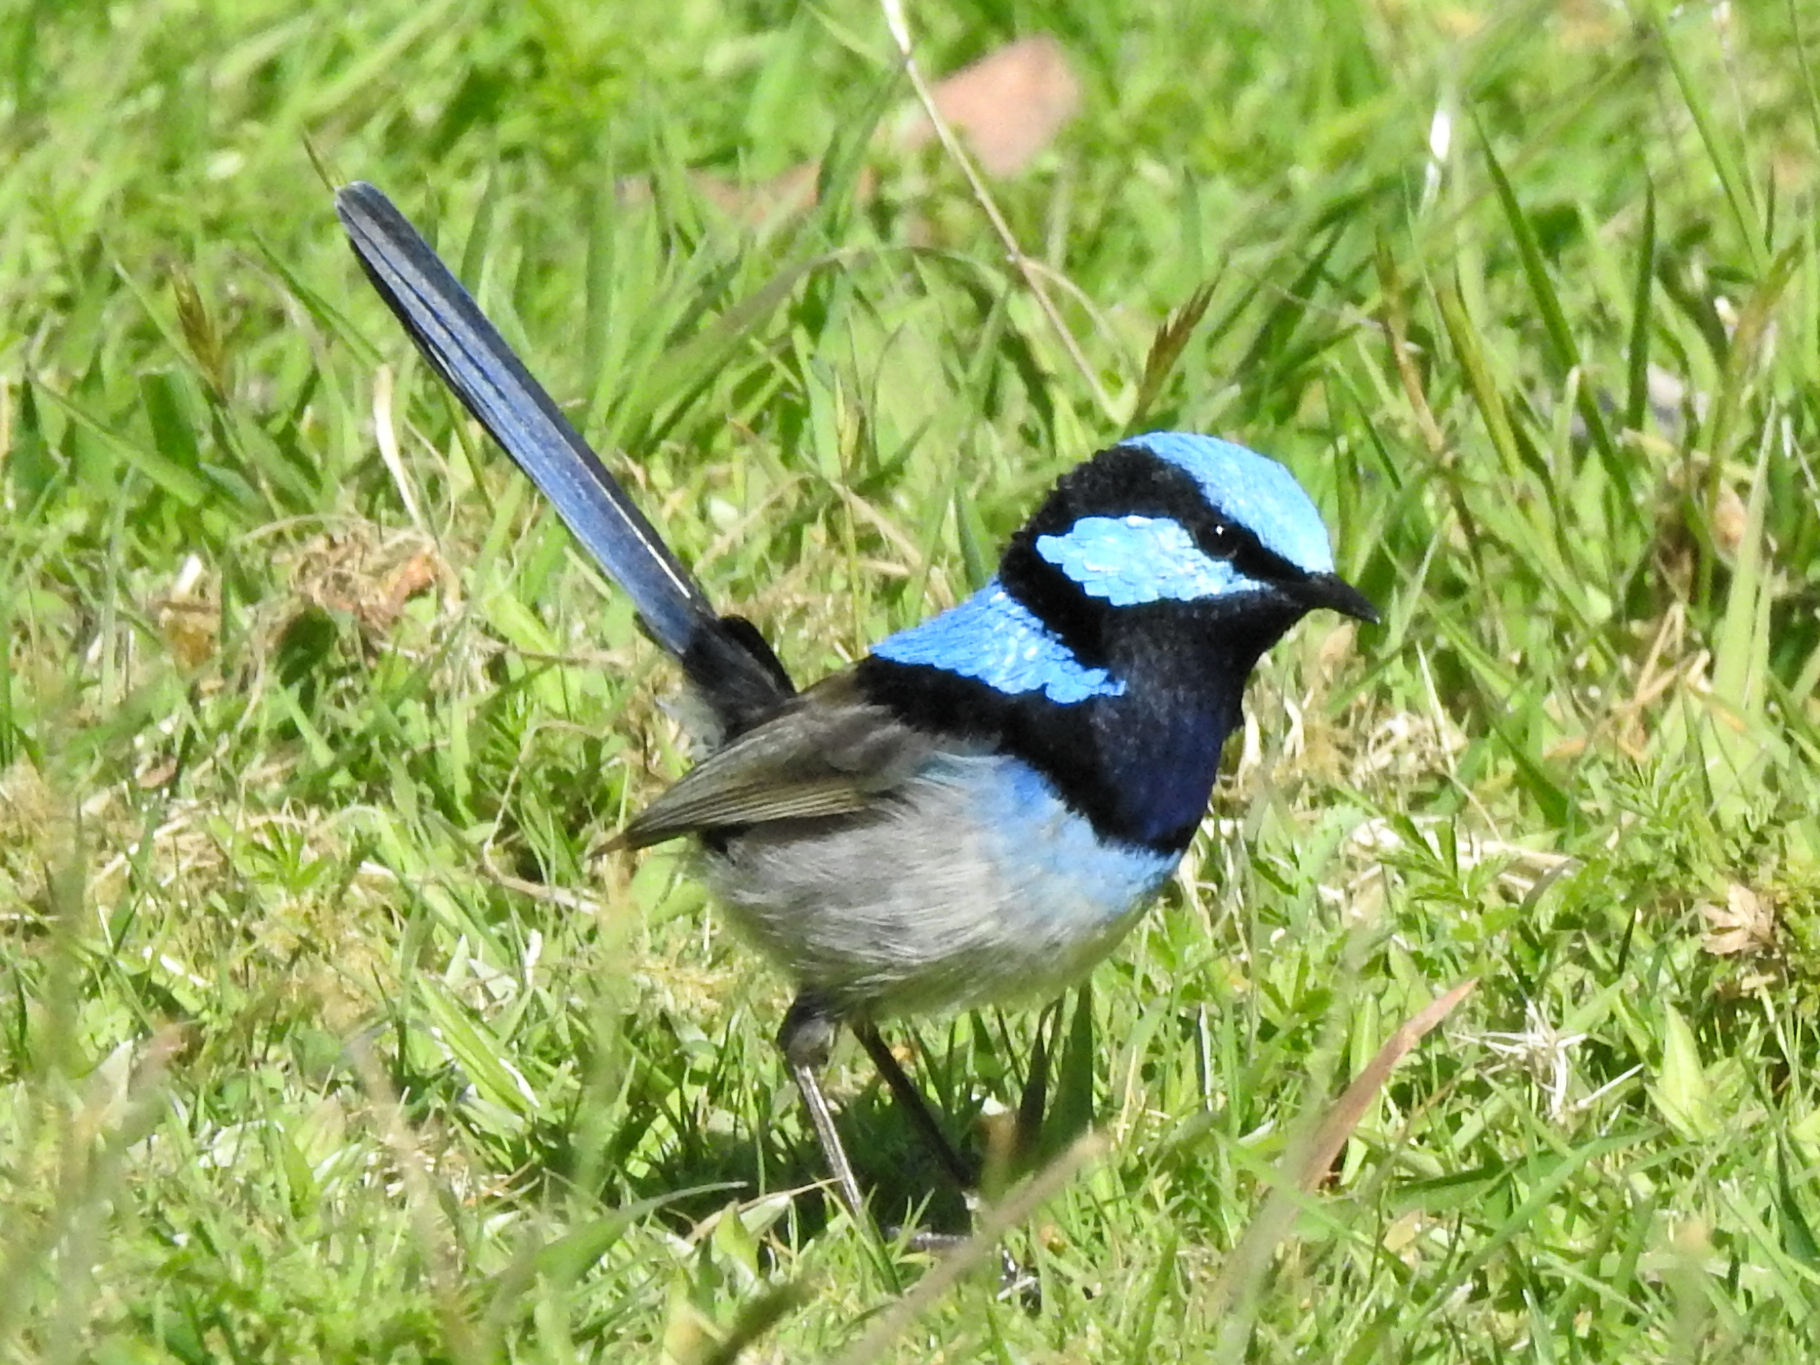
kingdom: Animalia
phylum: Chordata
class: Aves
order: Passeriformes
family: Maluridae
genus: Malurus
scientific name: Malurus cyaneus
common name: Superb fairywren
